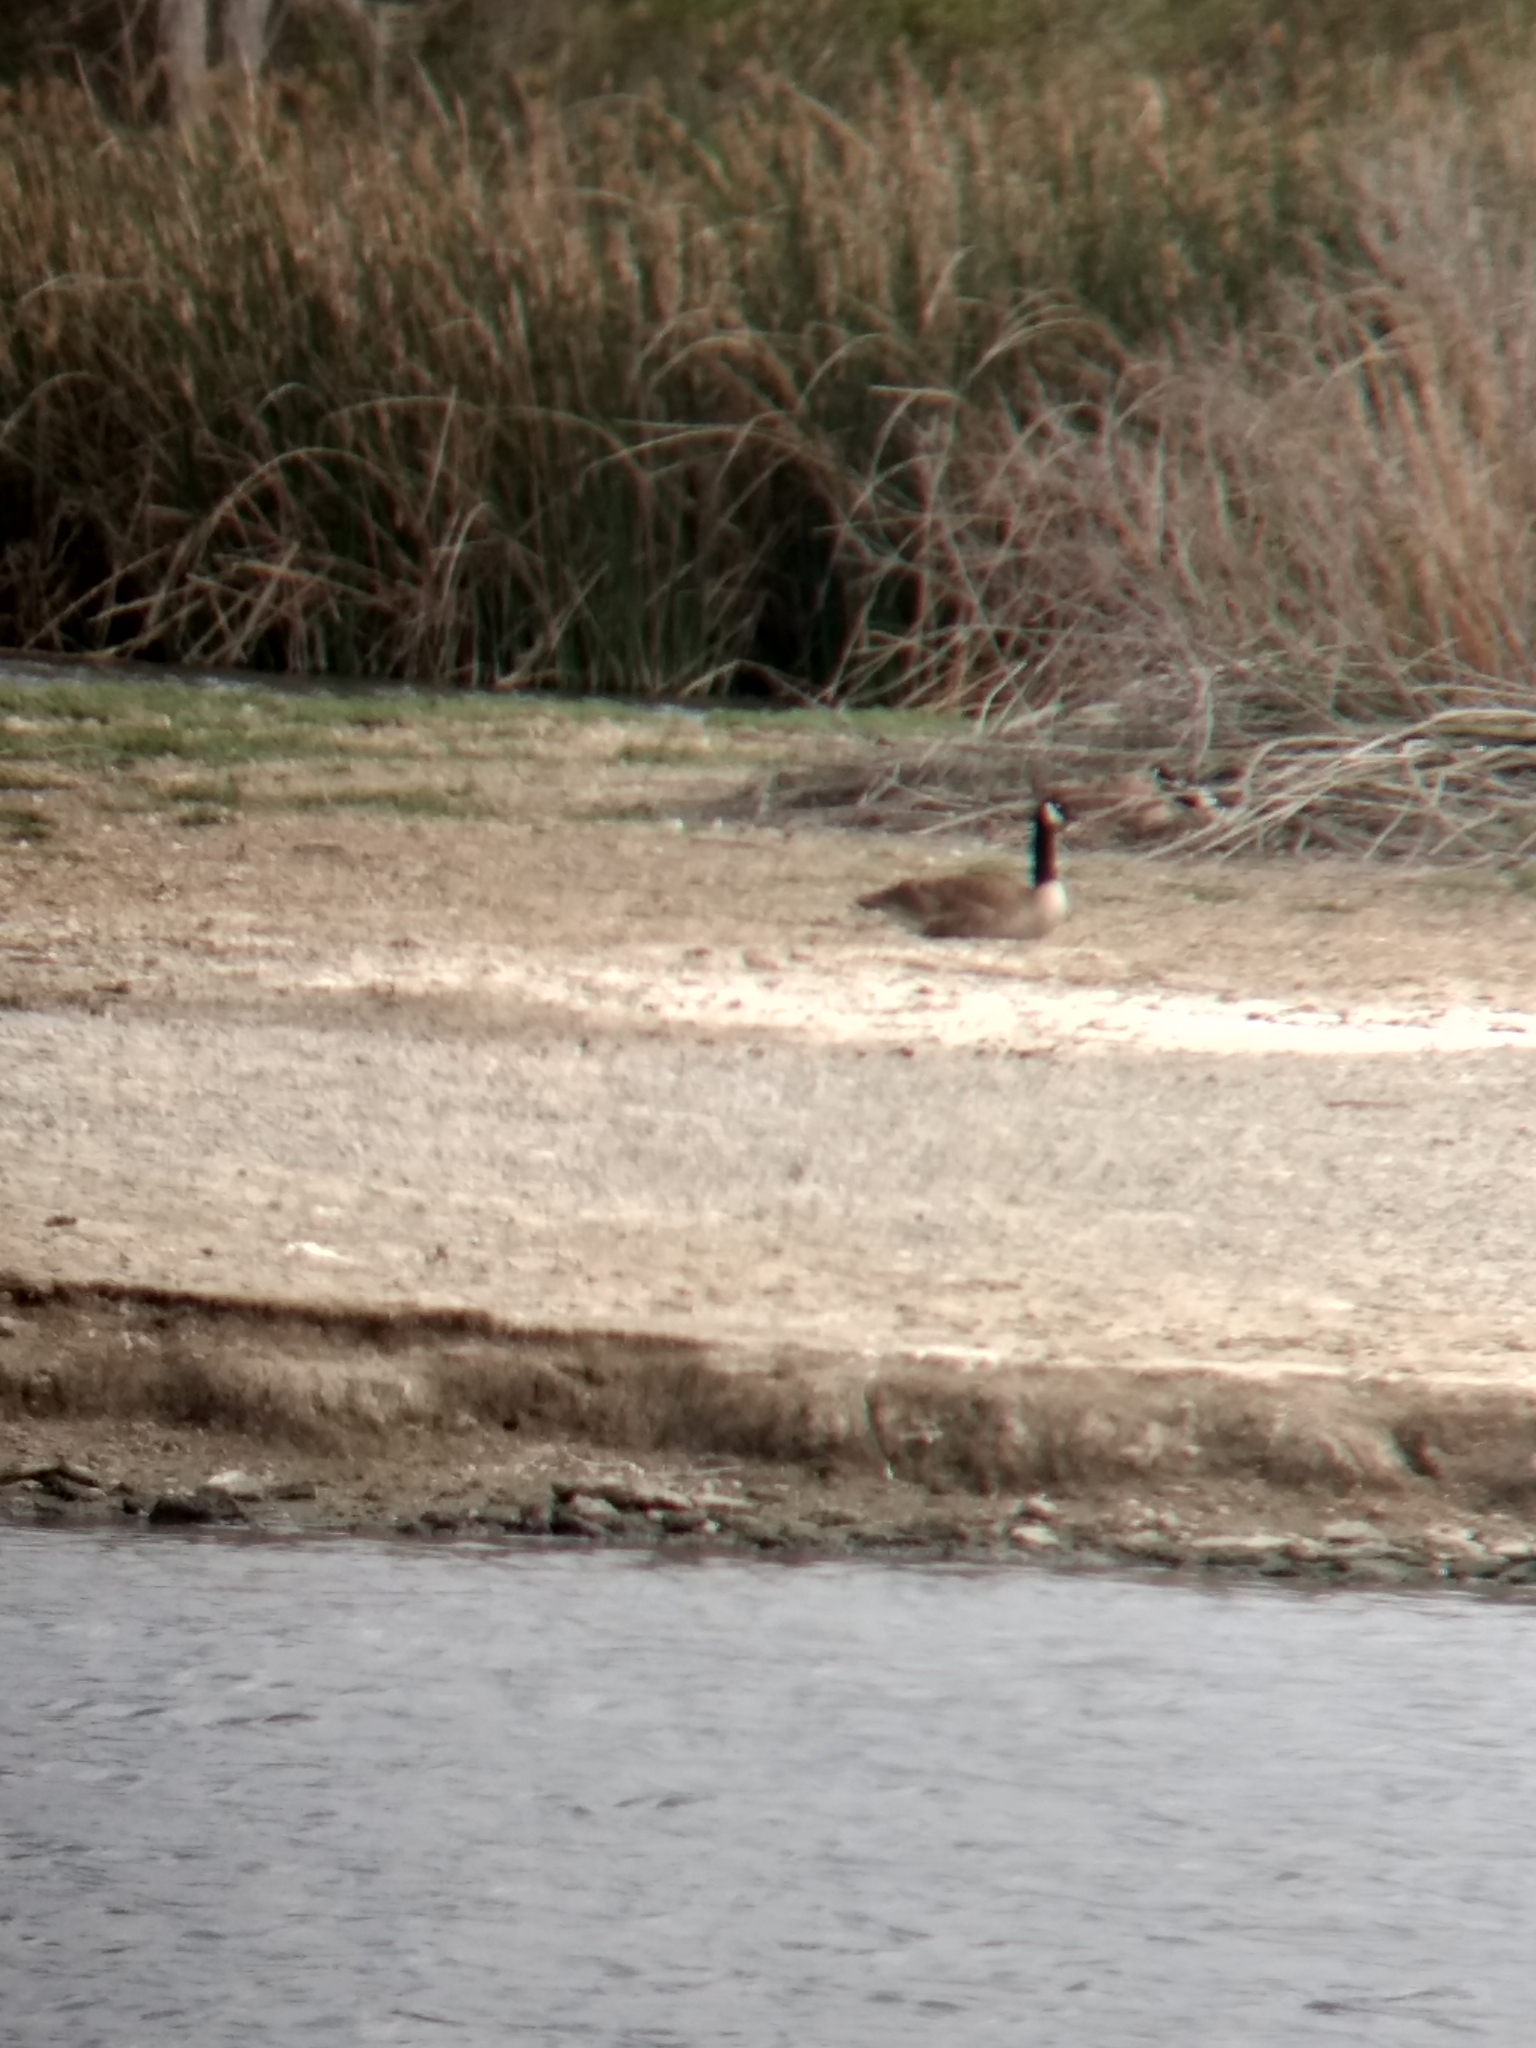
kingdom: Animalia
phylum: Chordata
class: Aves
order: Anseriformes
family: Anatidae
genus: Branta
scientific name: Branta canadensis
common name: Canada goose
